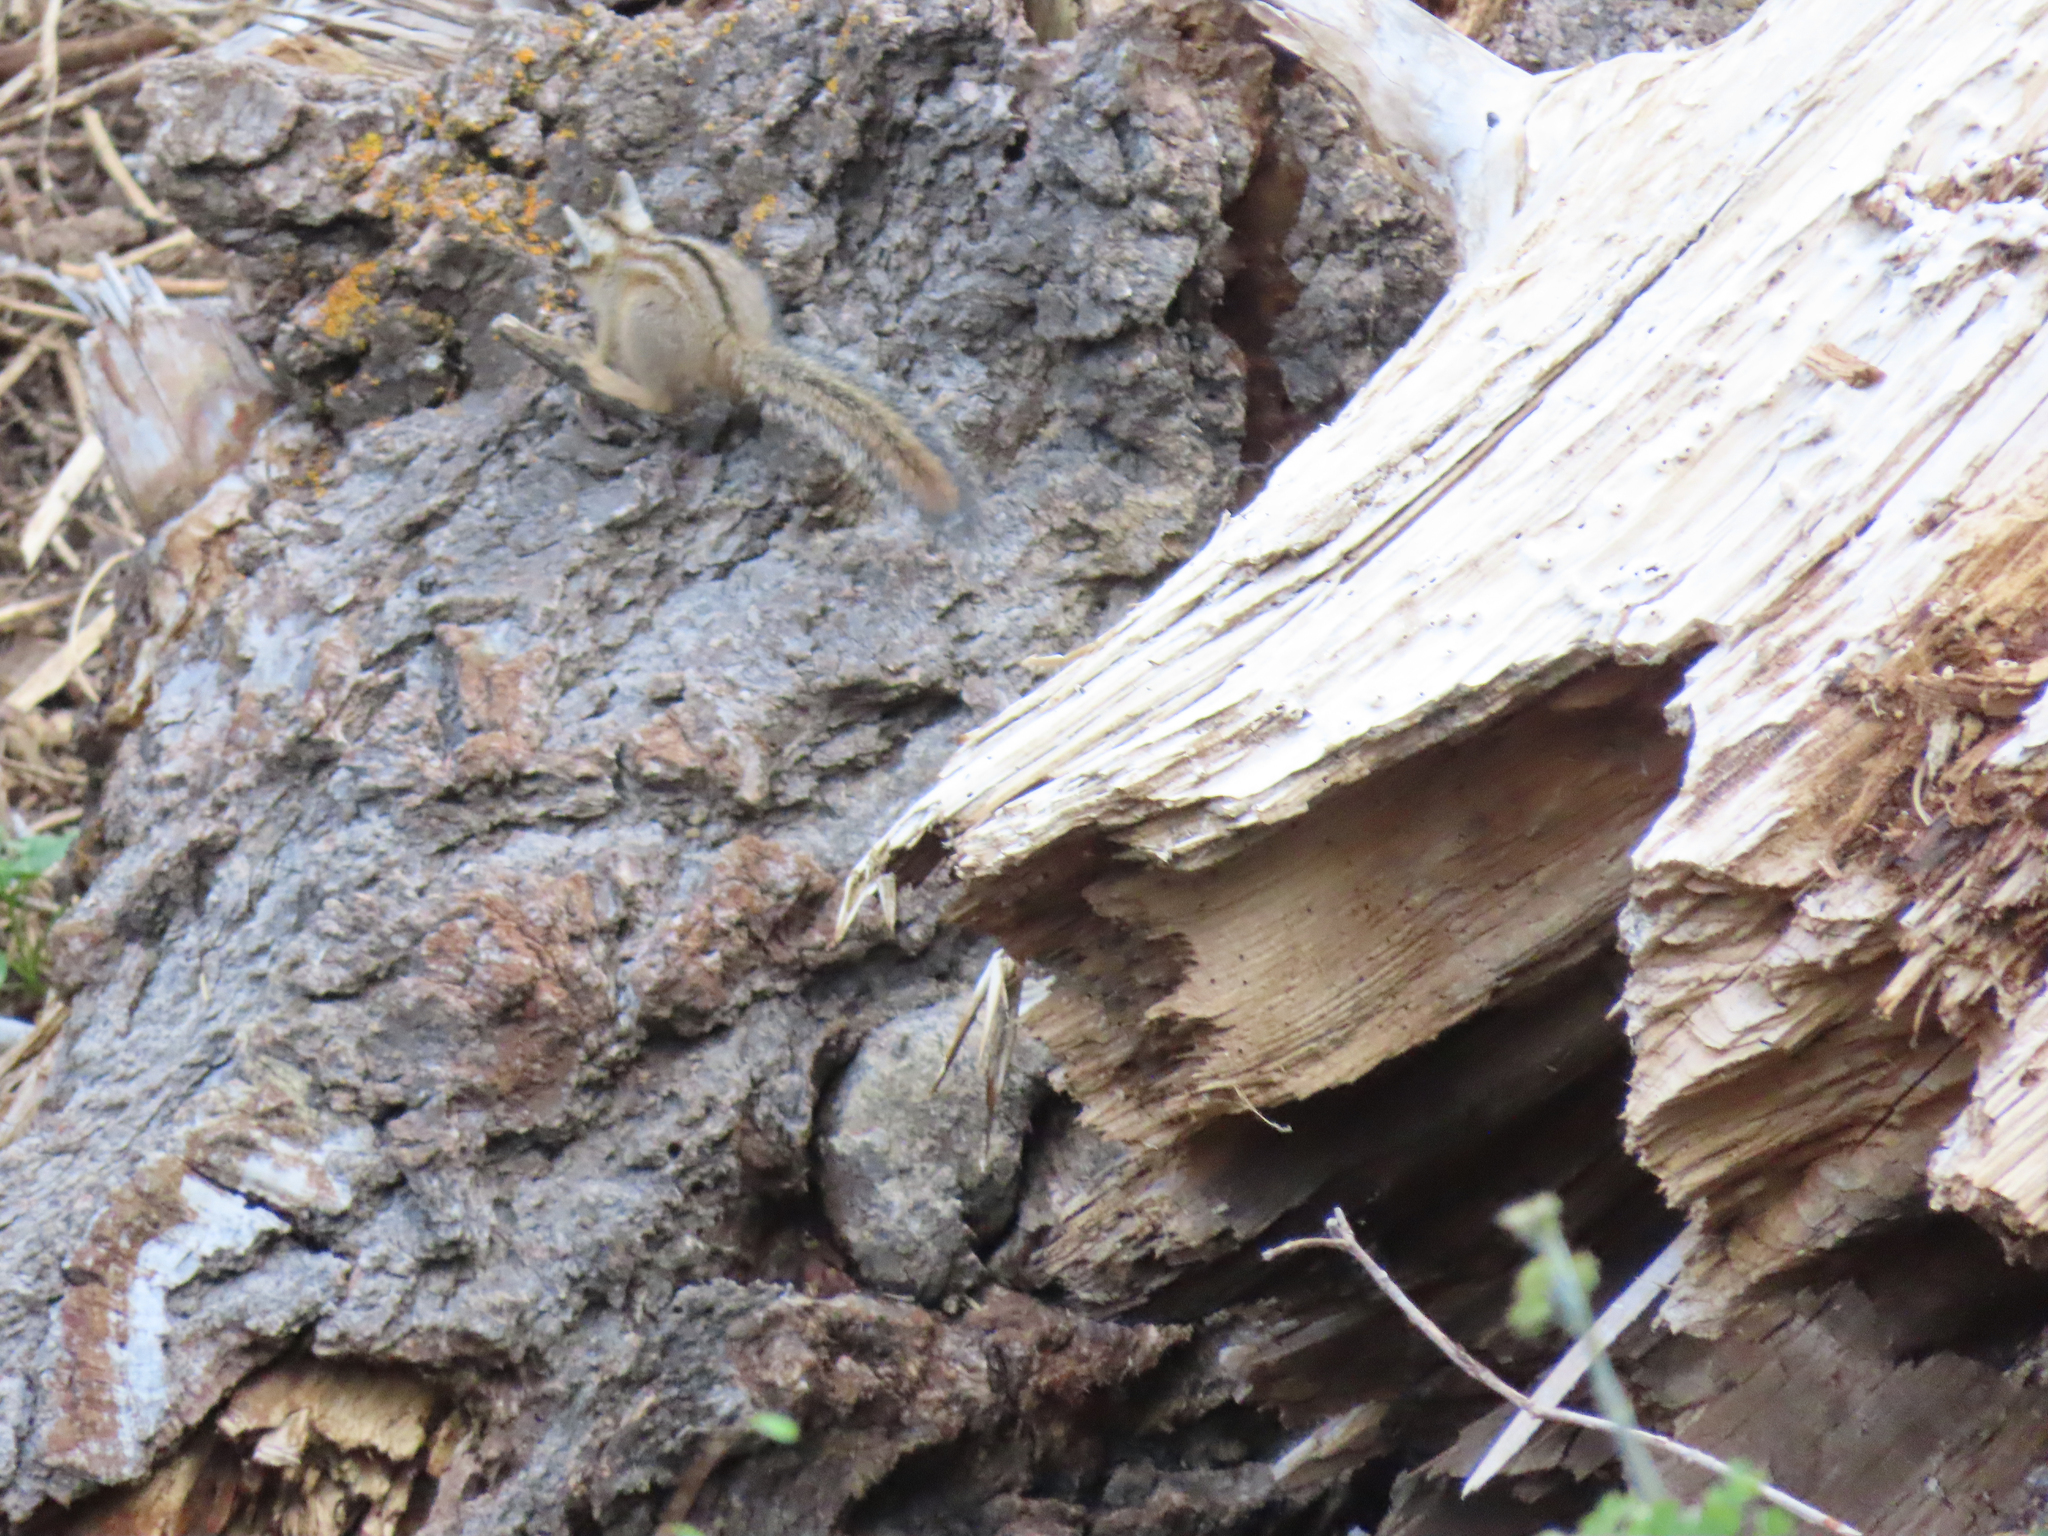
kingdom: Animalia
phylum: Chordata
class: Mammalia
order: Rodentia
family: Sciuridae
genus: Tamias
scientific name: Tamias dorsalis
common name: Cliff chipmunk
